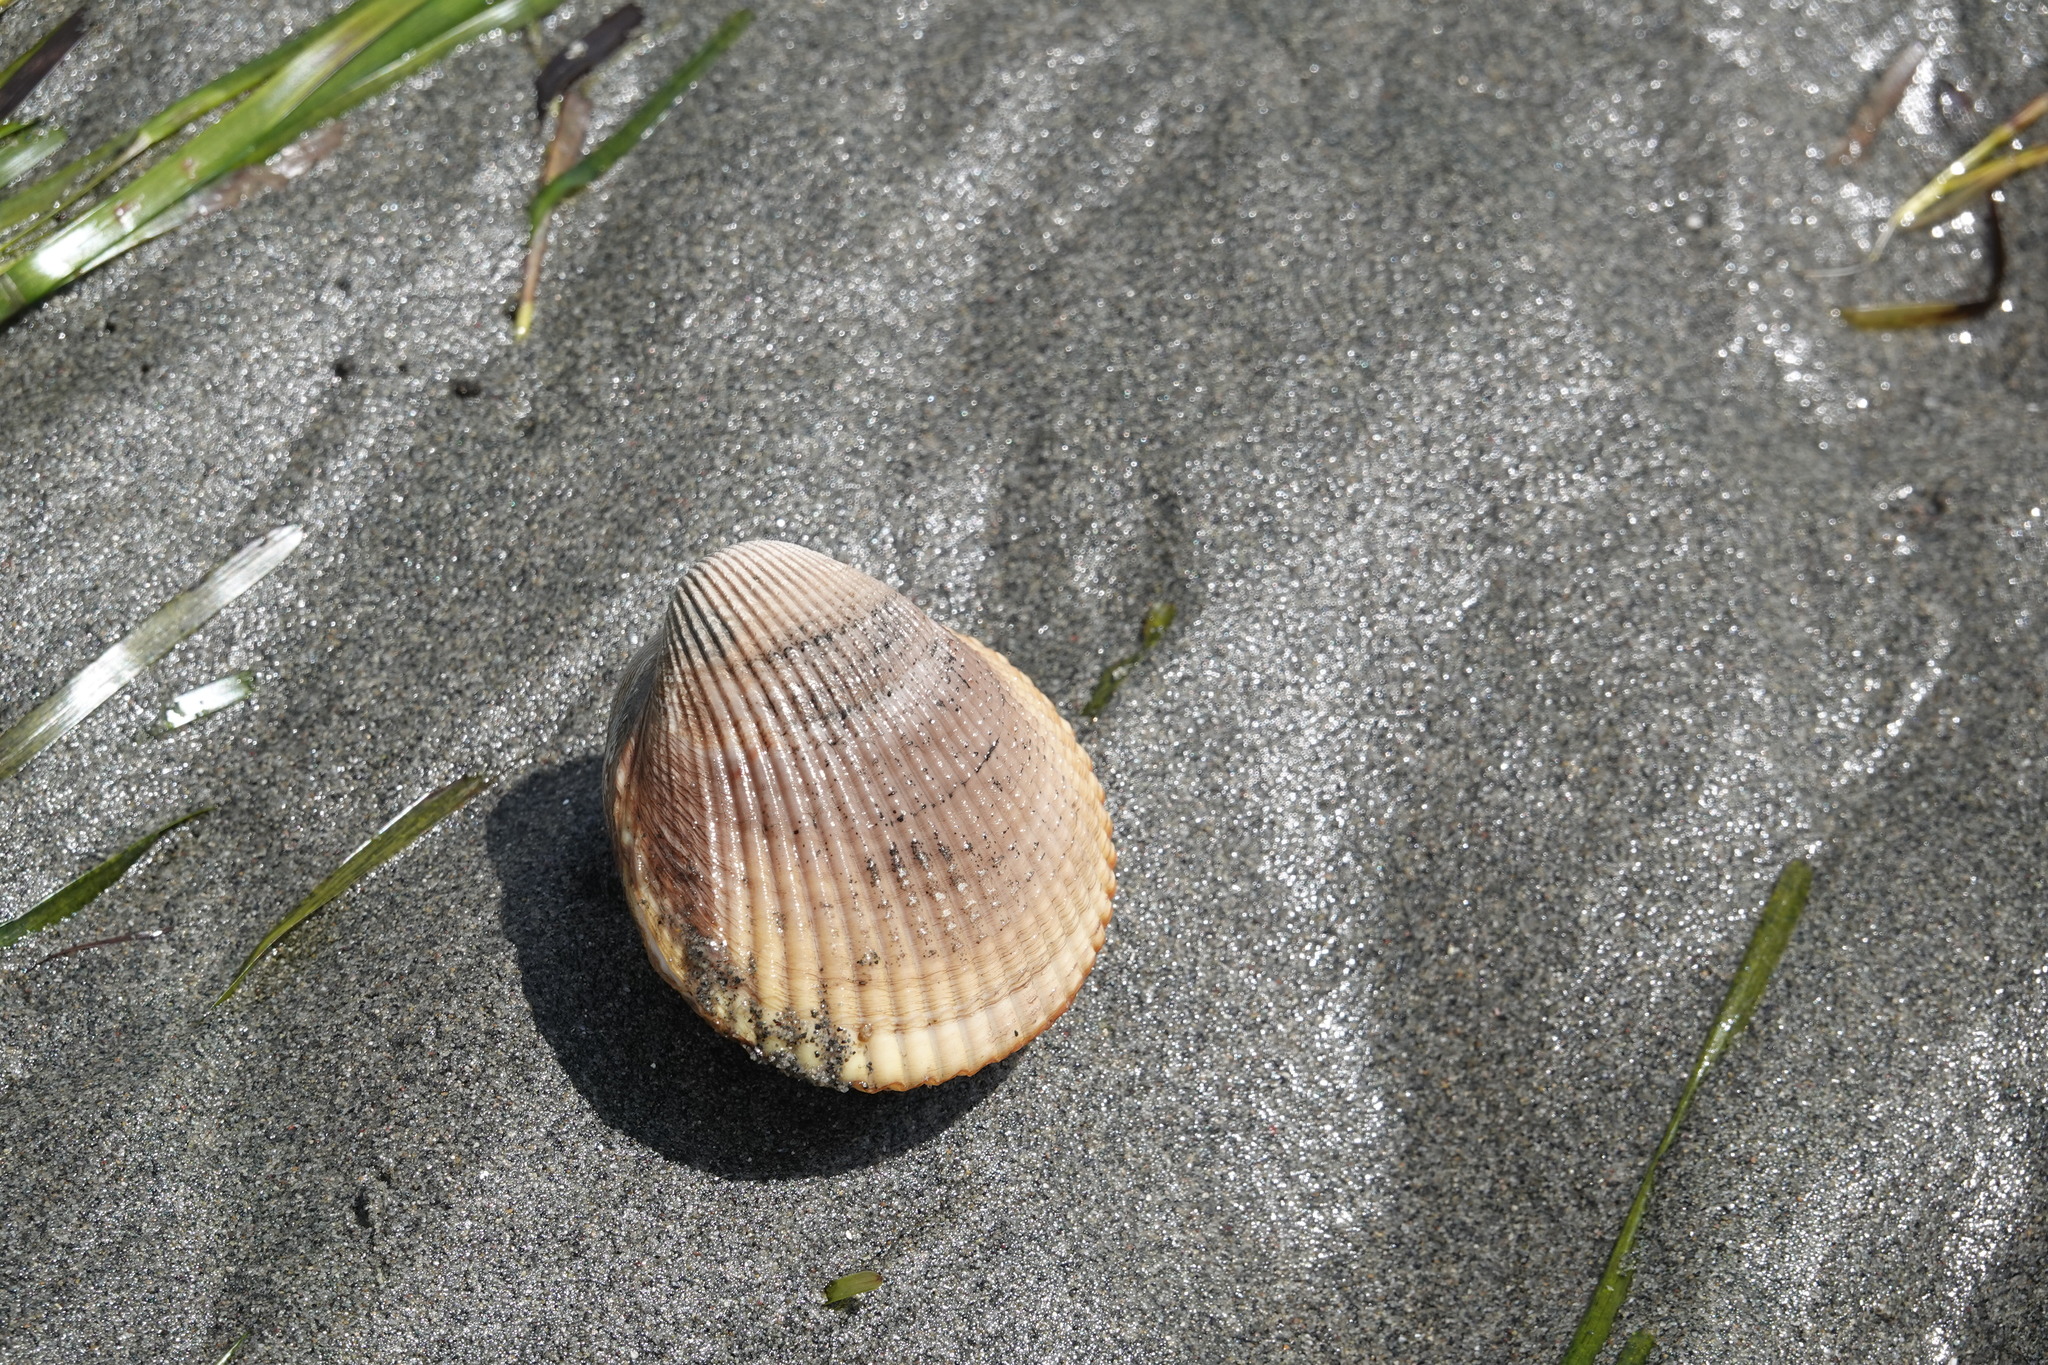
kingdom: Animalia
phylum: Mollusca
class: Bivalvia
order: Cardiida
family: Cardiidae
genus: Clinocardium
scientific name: Clinocardium nuttallii
